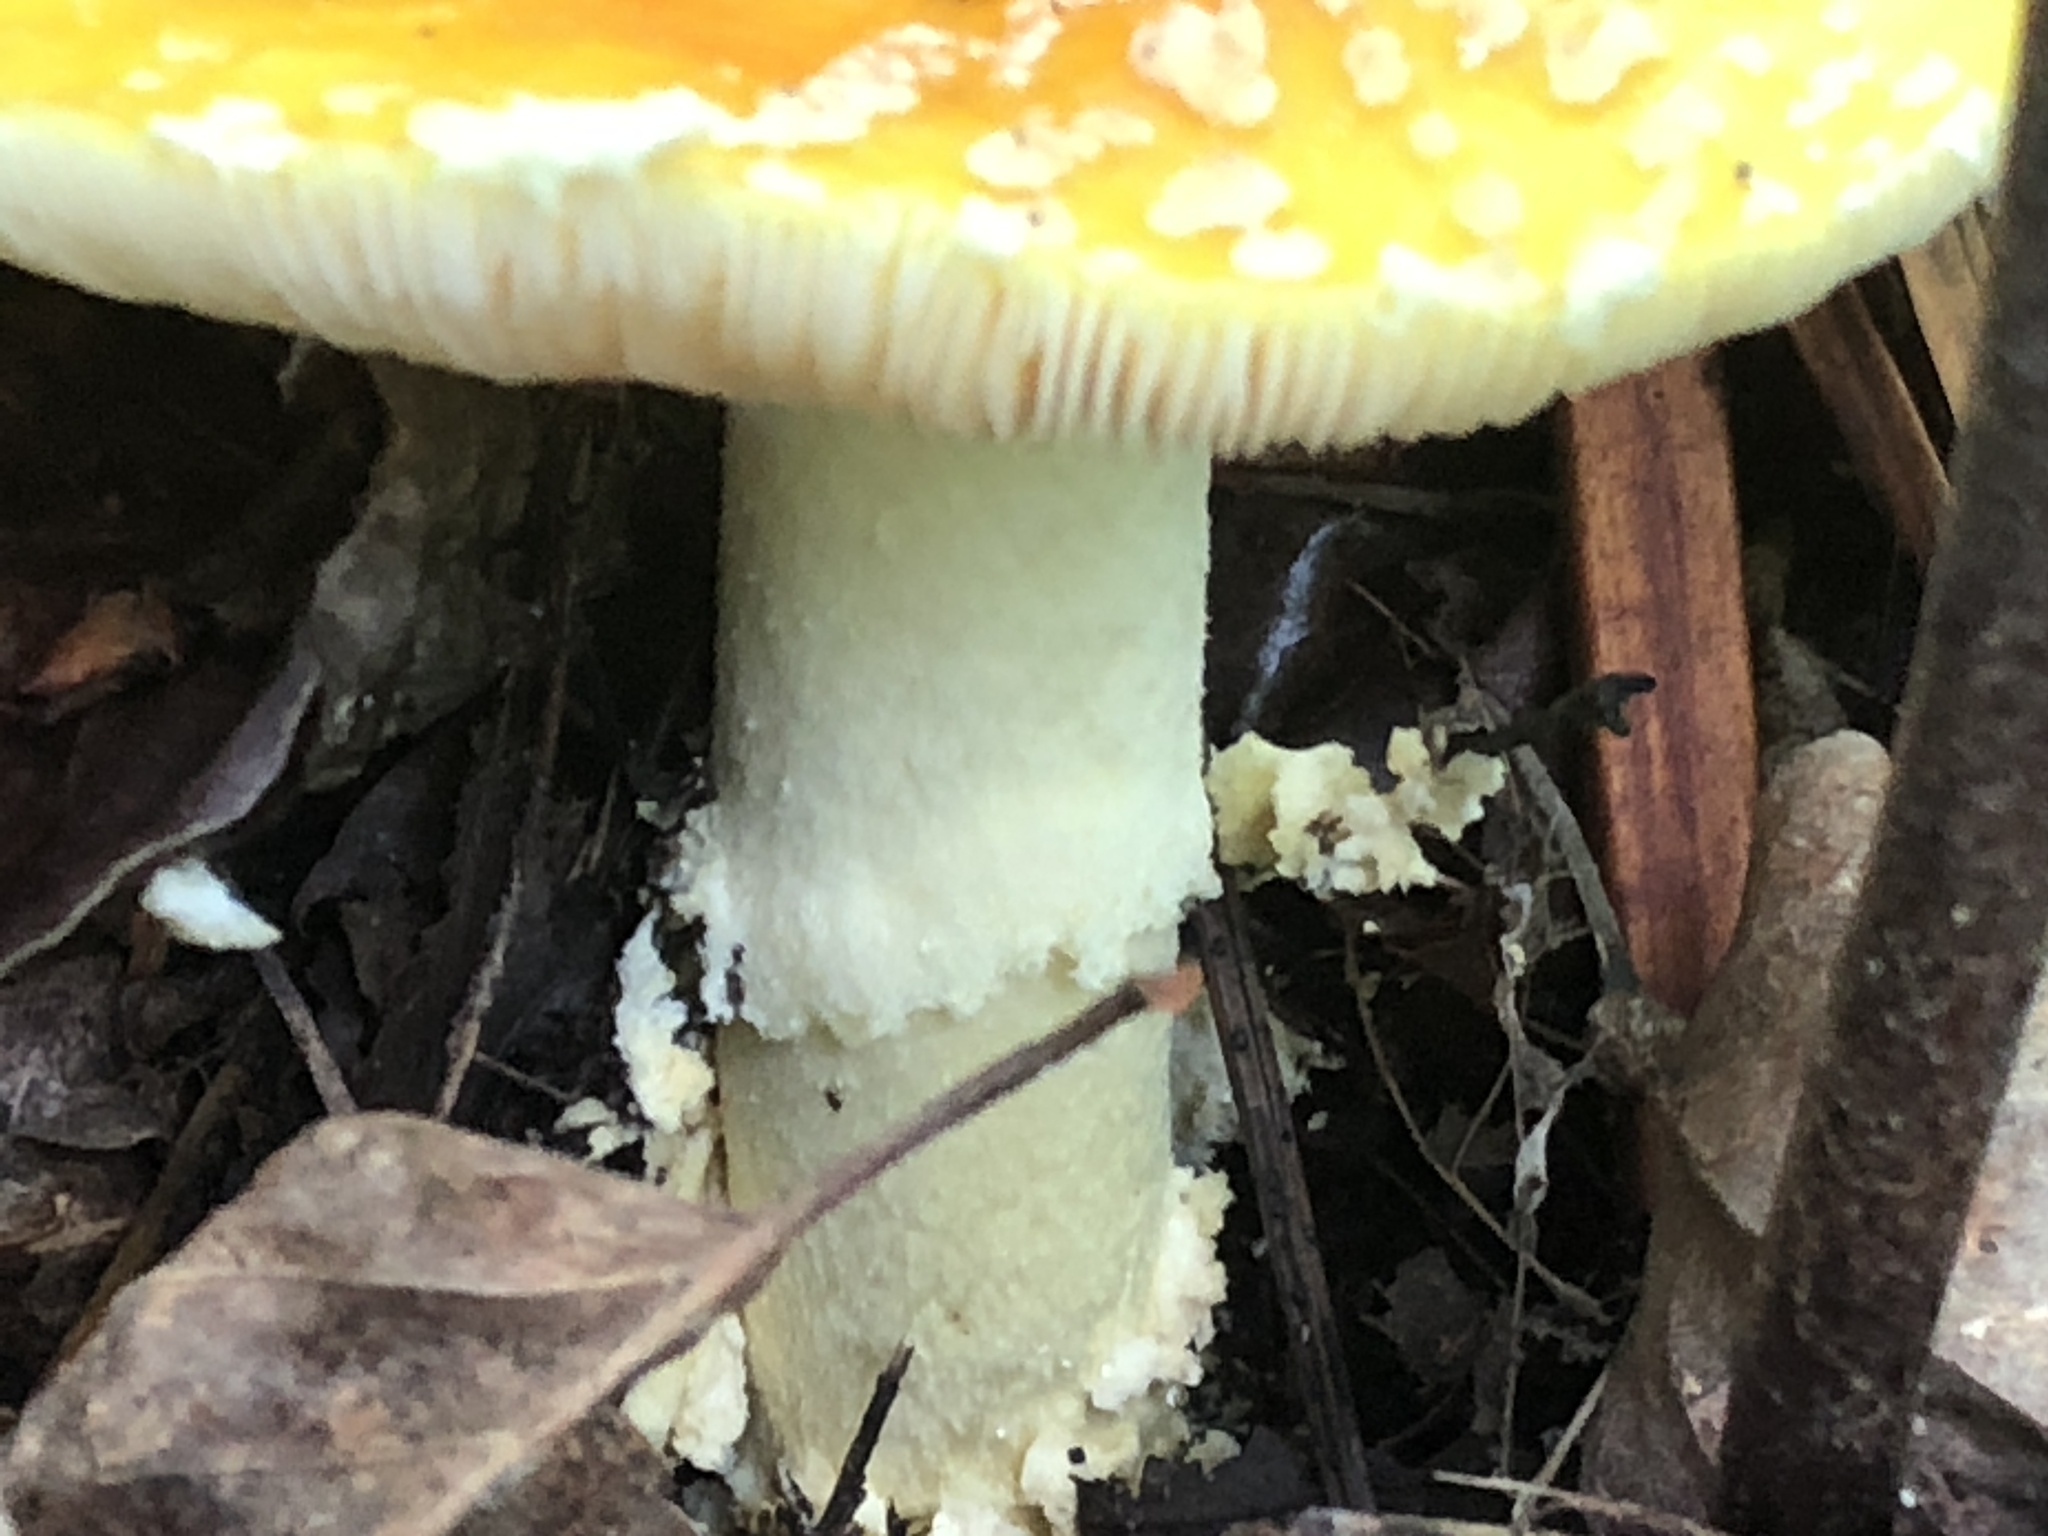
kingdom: Fungi
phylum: Basidiomycota
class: Agaricomycetes
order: Agaricales
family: Amanitaceae
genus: Amanita
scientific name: Amanita muscaria
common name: Fly agaric
